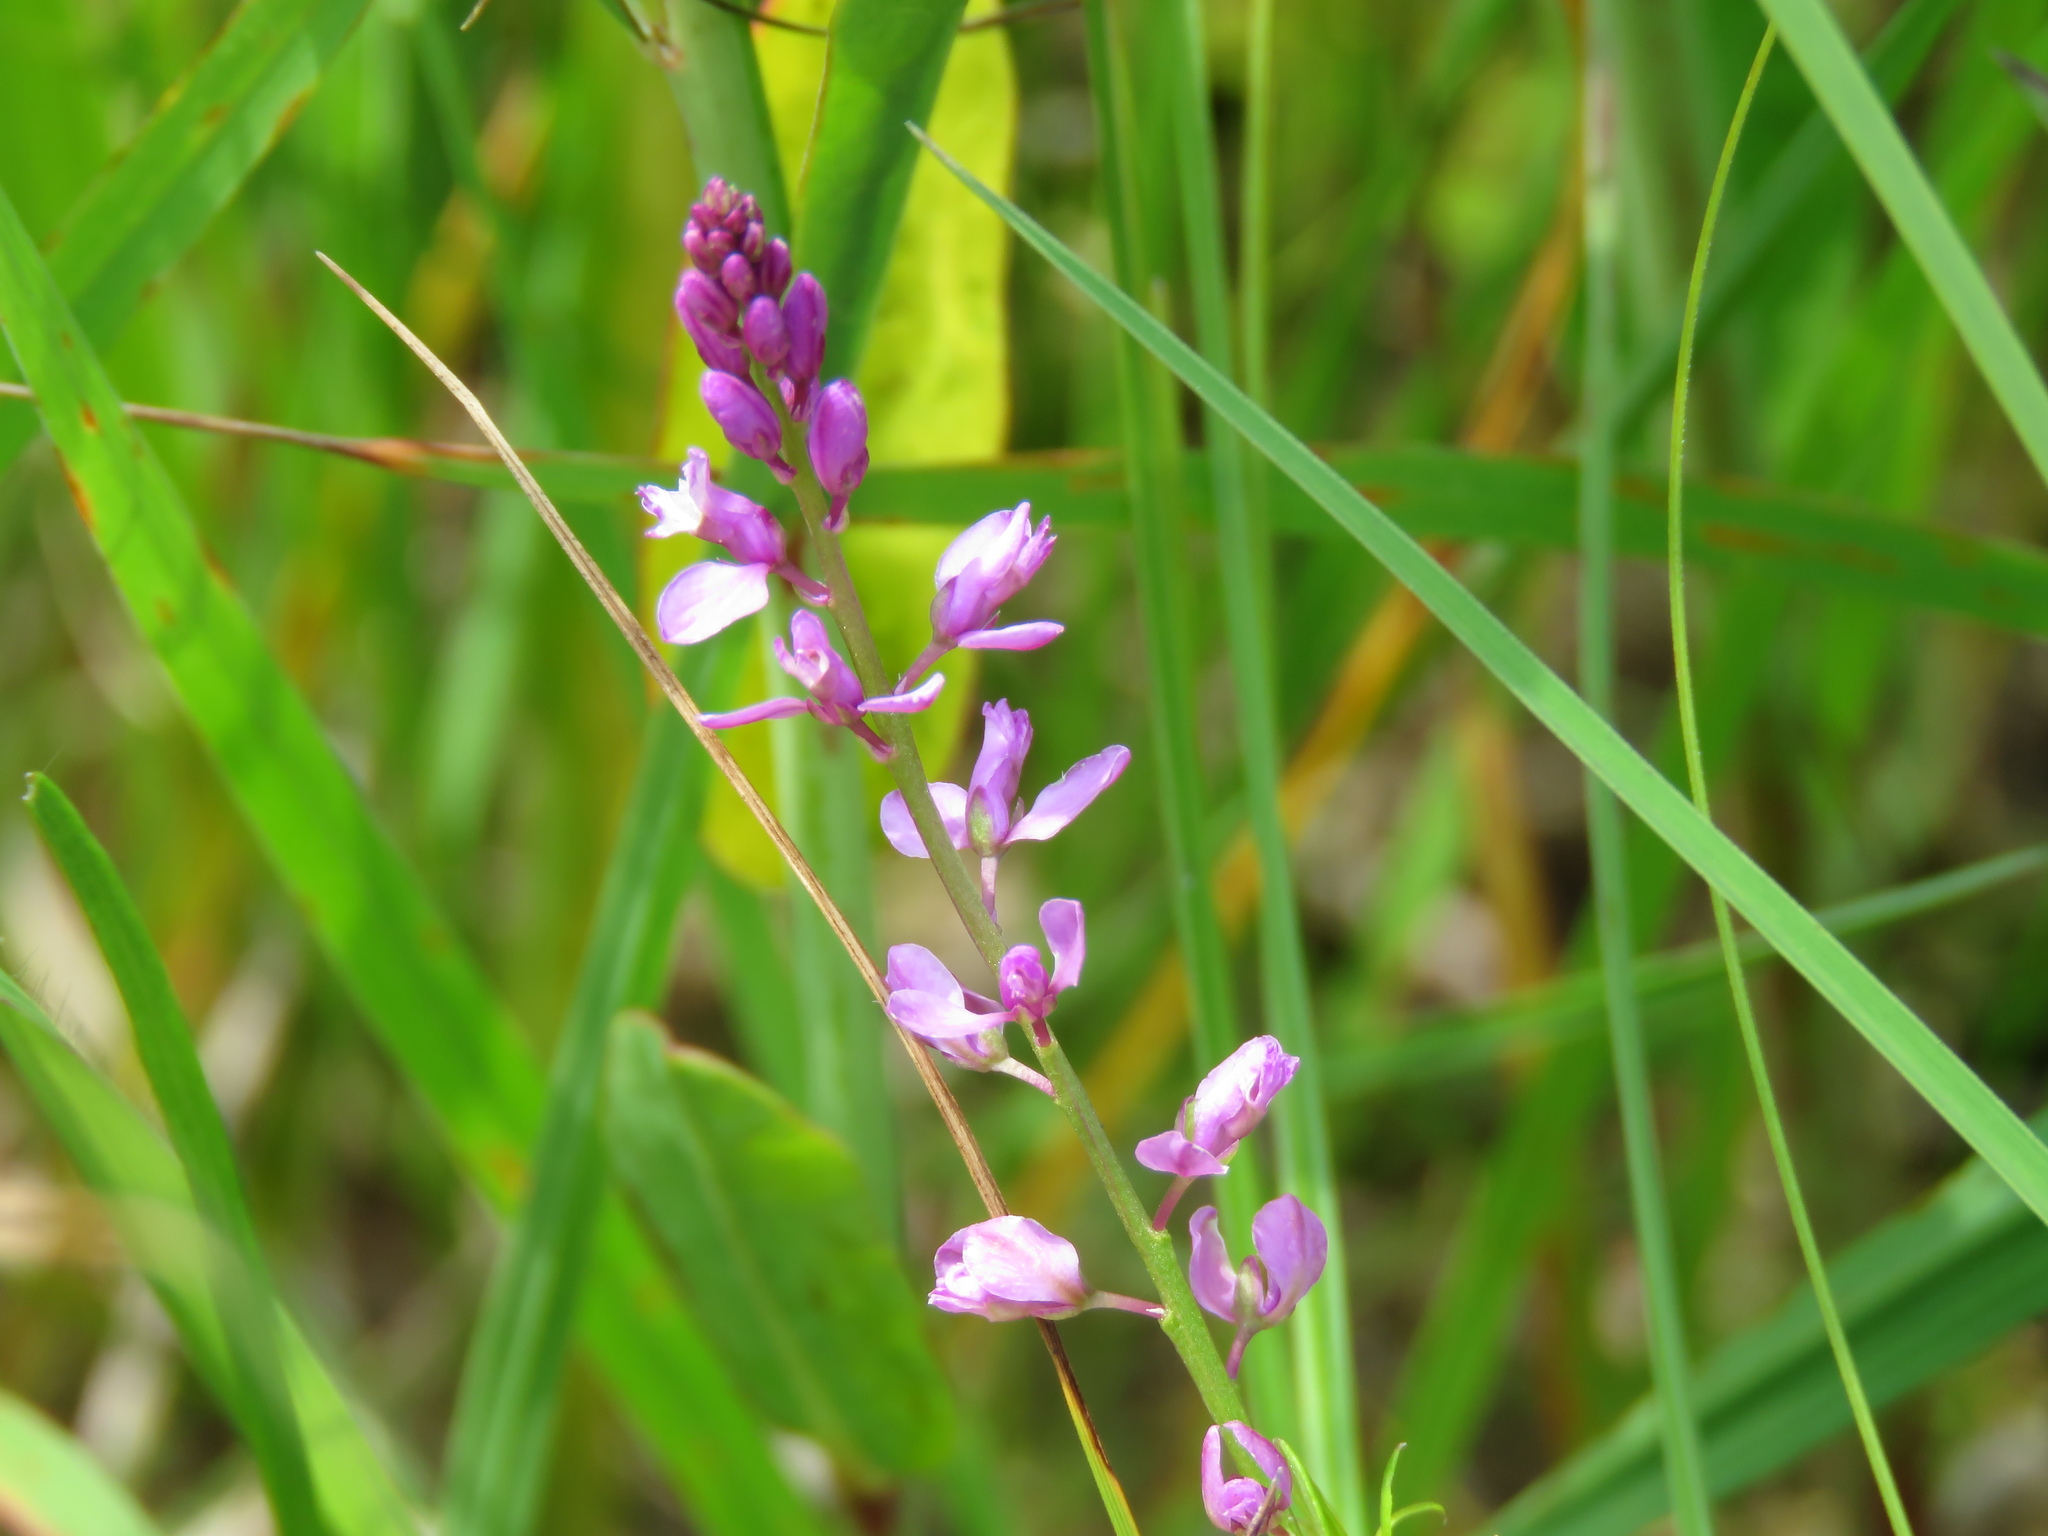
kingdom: Plantae
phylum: Tracheophyta
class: Magnoliopsida
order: Fabales
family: Polygalaceae
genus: Polygala
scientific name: Polygala polygama
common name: Bitter milkwort
